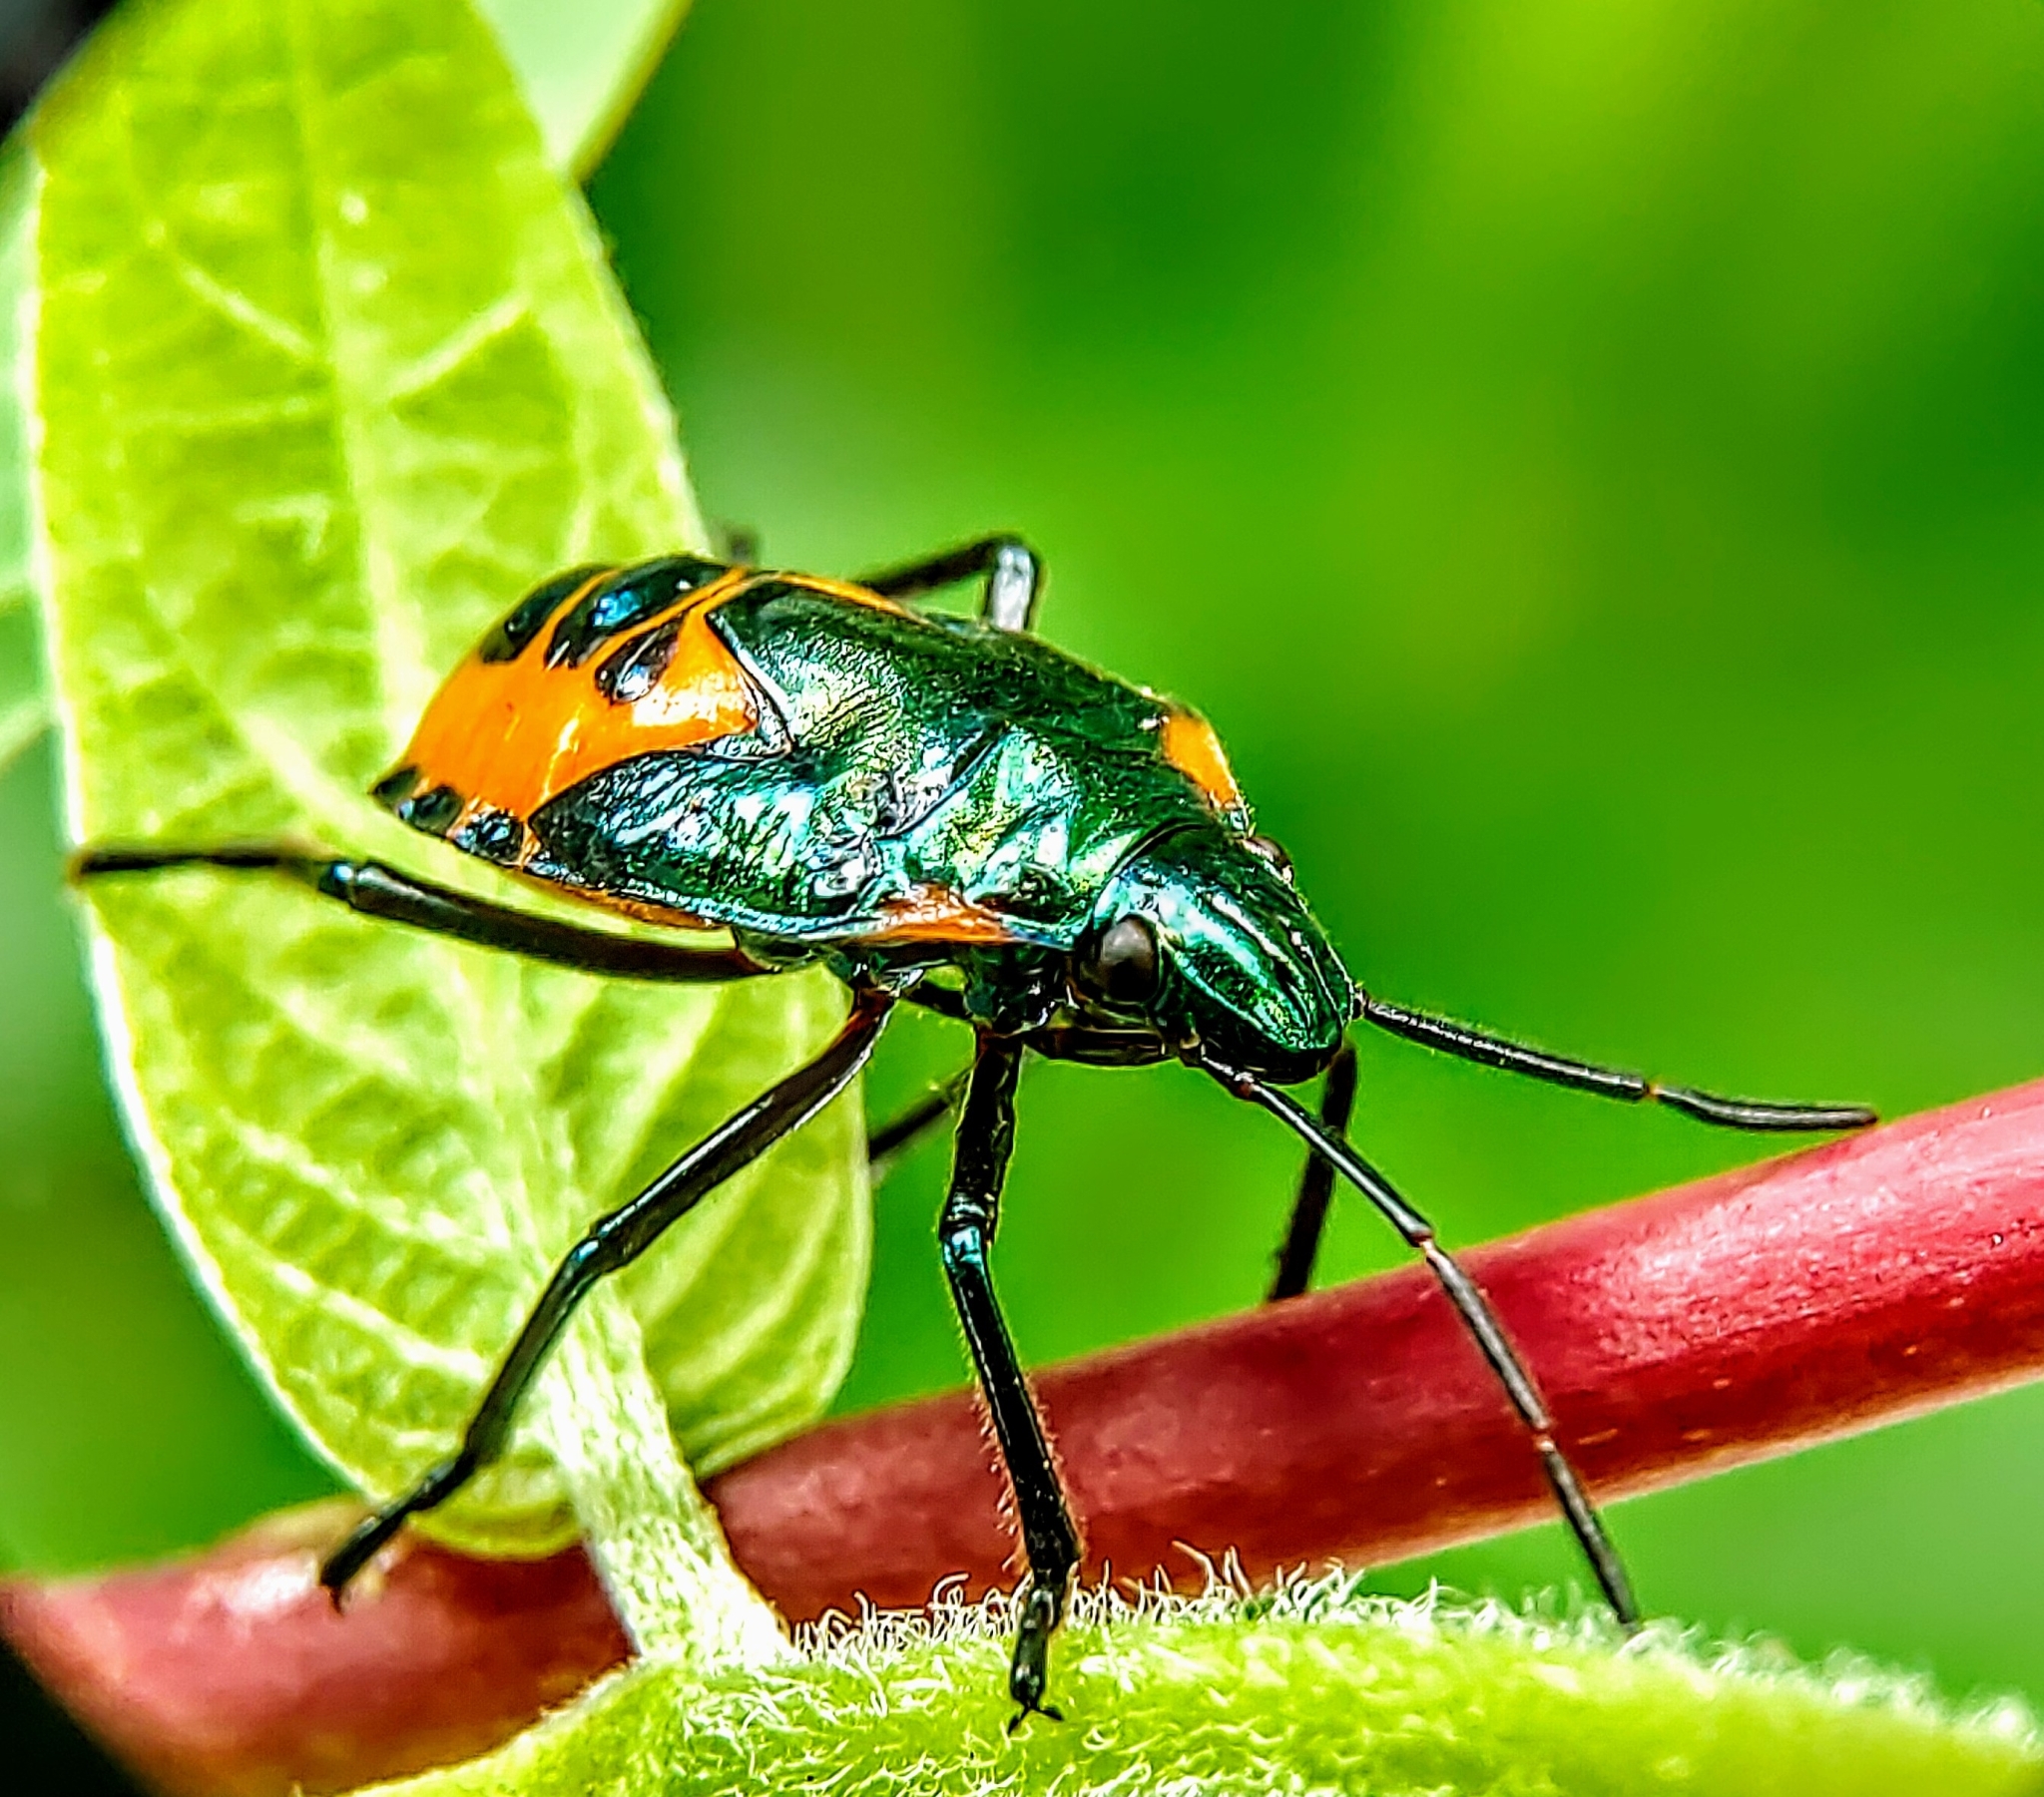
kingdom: Animalia
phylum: Arthropoda
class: Insecta
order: Hemiptera
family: Scutelleridae
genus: Cantao
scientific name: Cantao ocellatus
